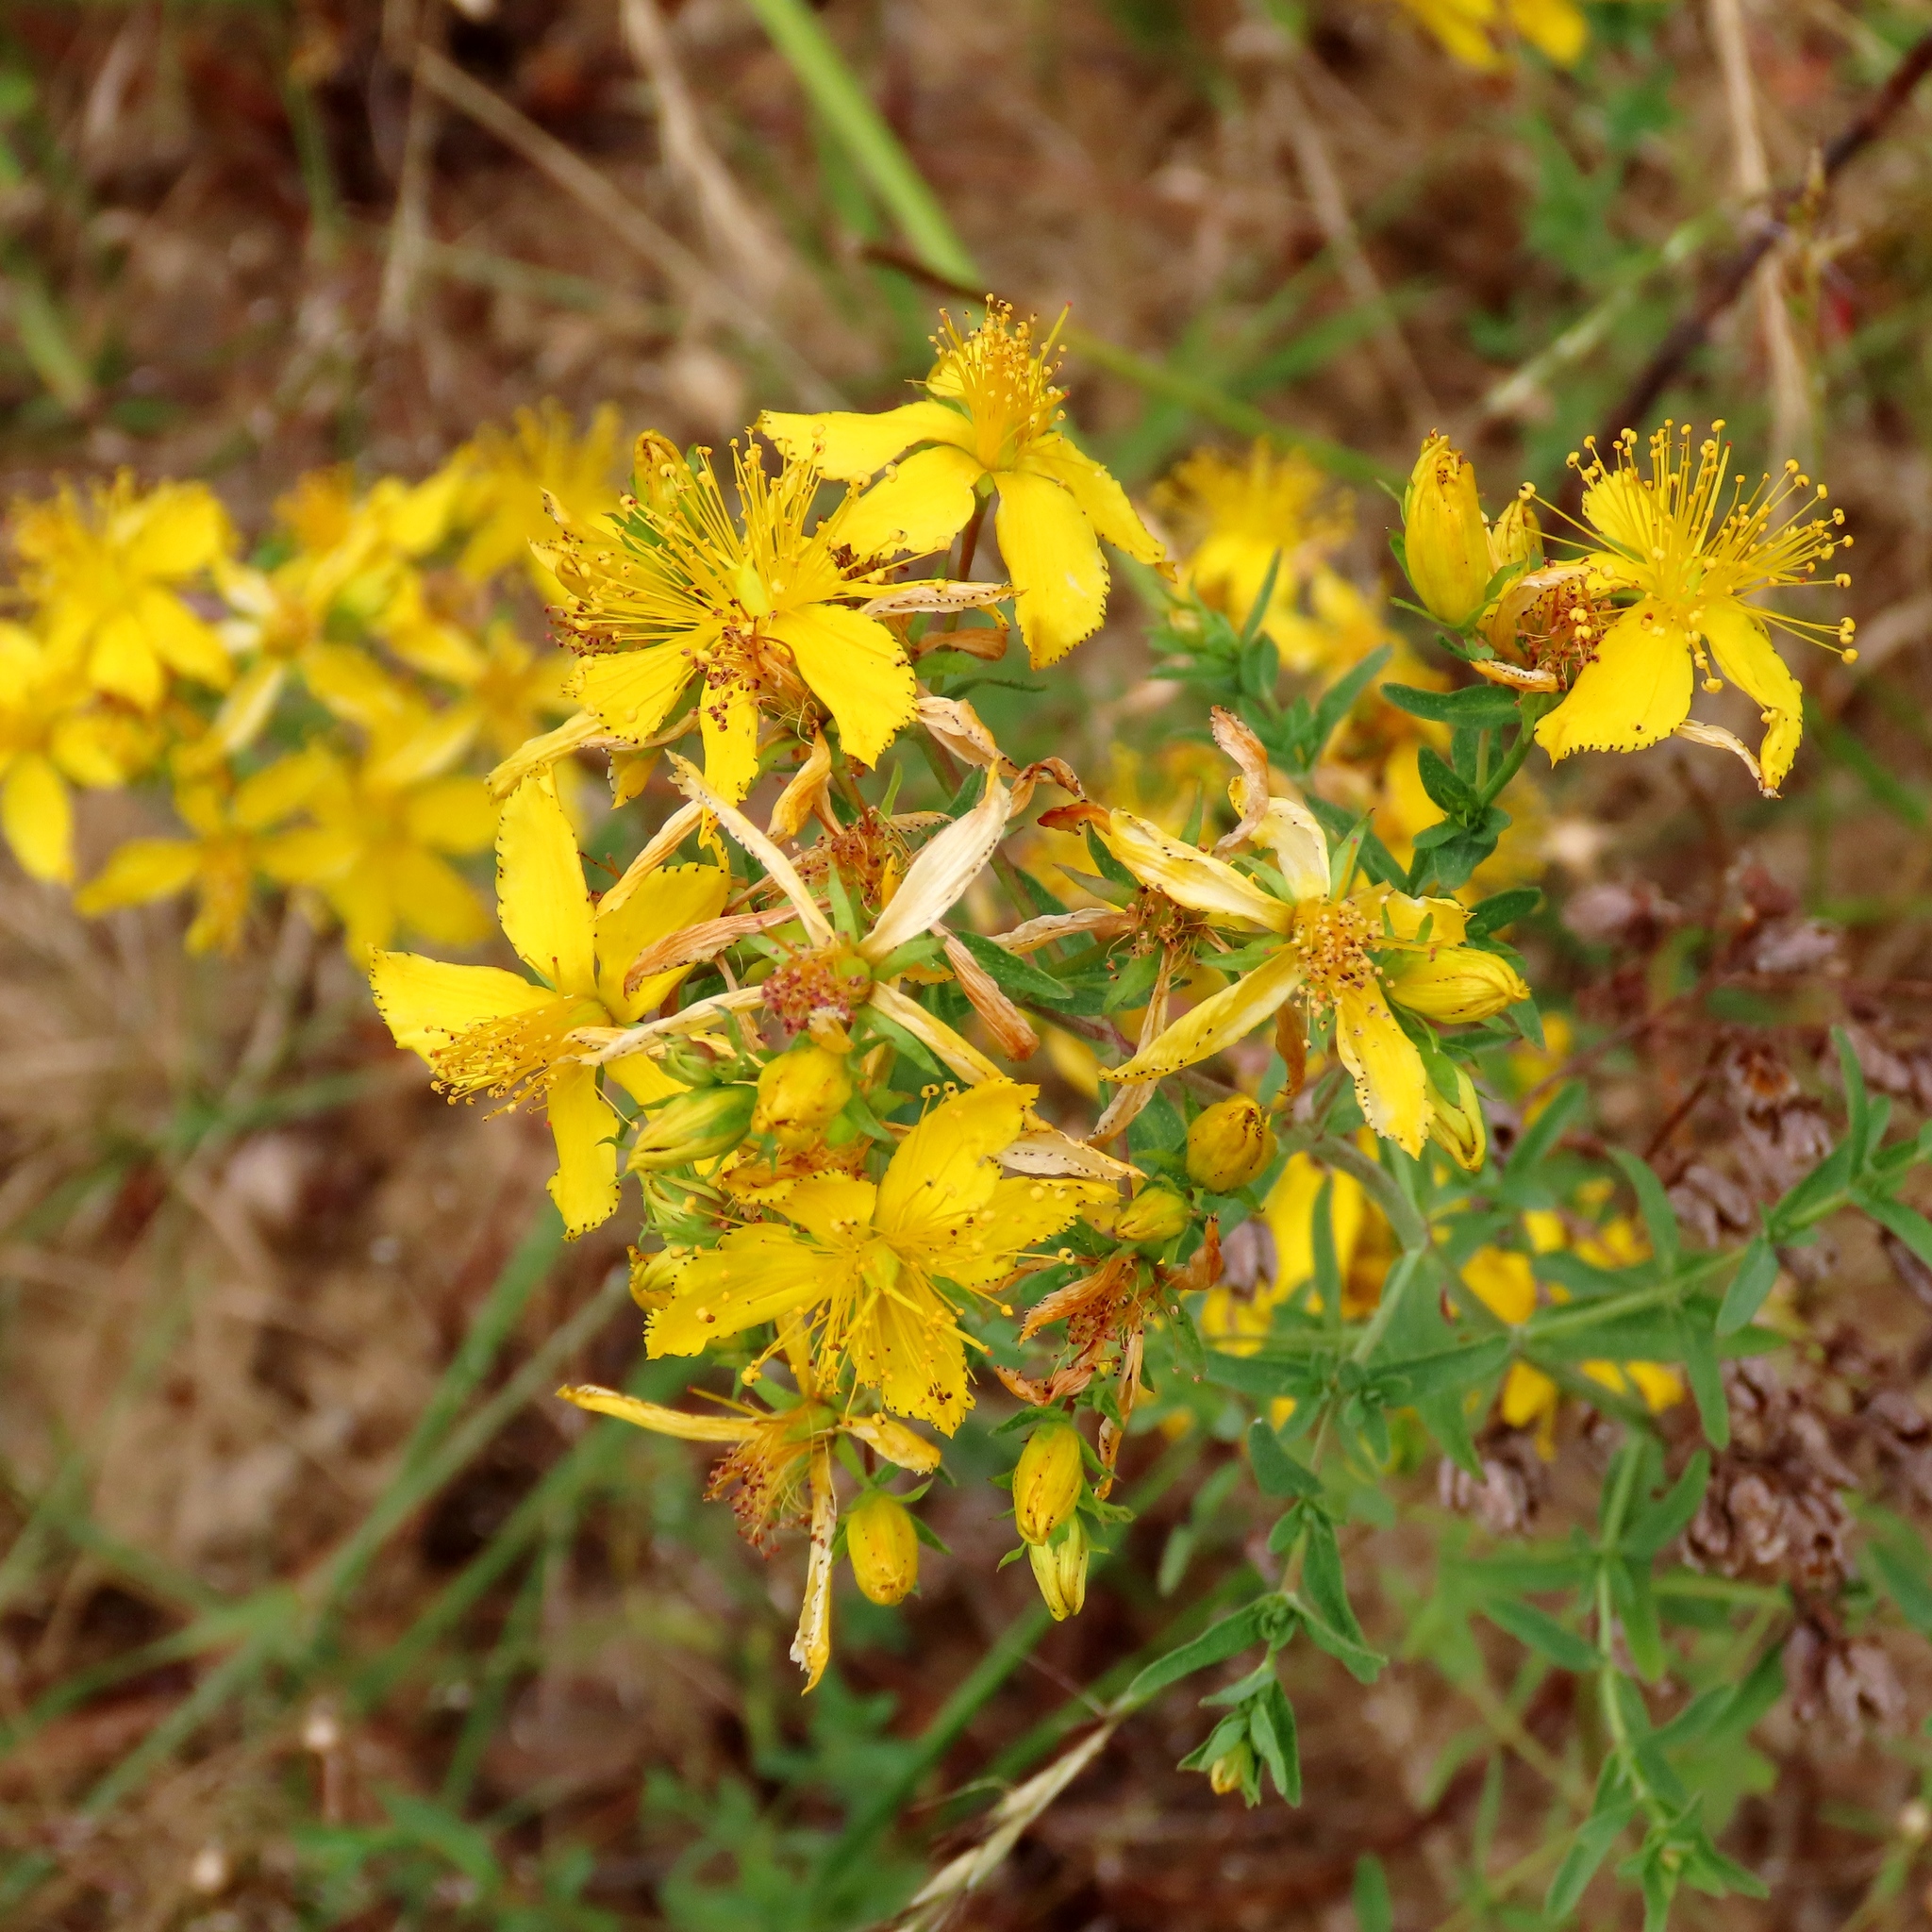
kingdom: Plantae
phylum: Tracheophyta
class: Magnoliopsida
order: Malpighiales
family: Hypericaceae
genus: Hypericum
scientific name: Hypericum perforatum
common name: Common st. johnswort
